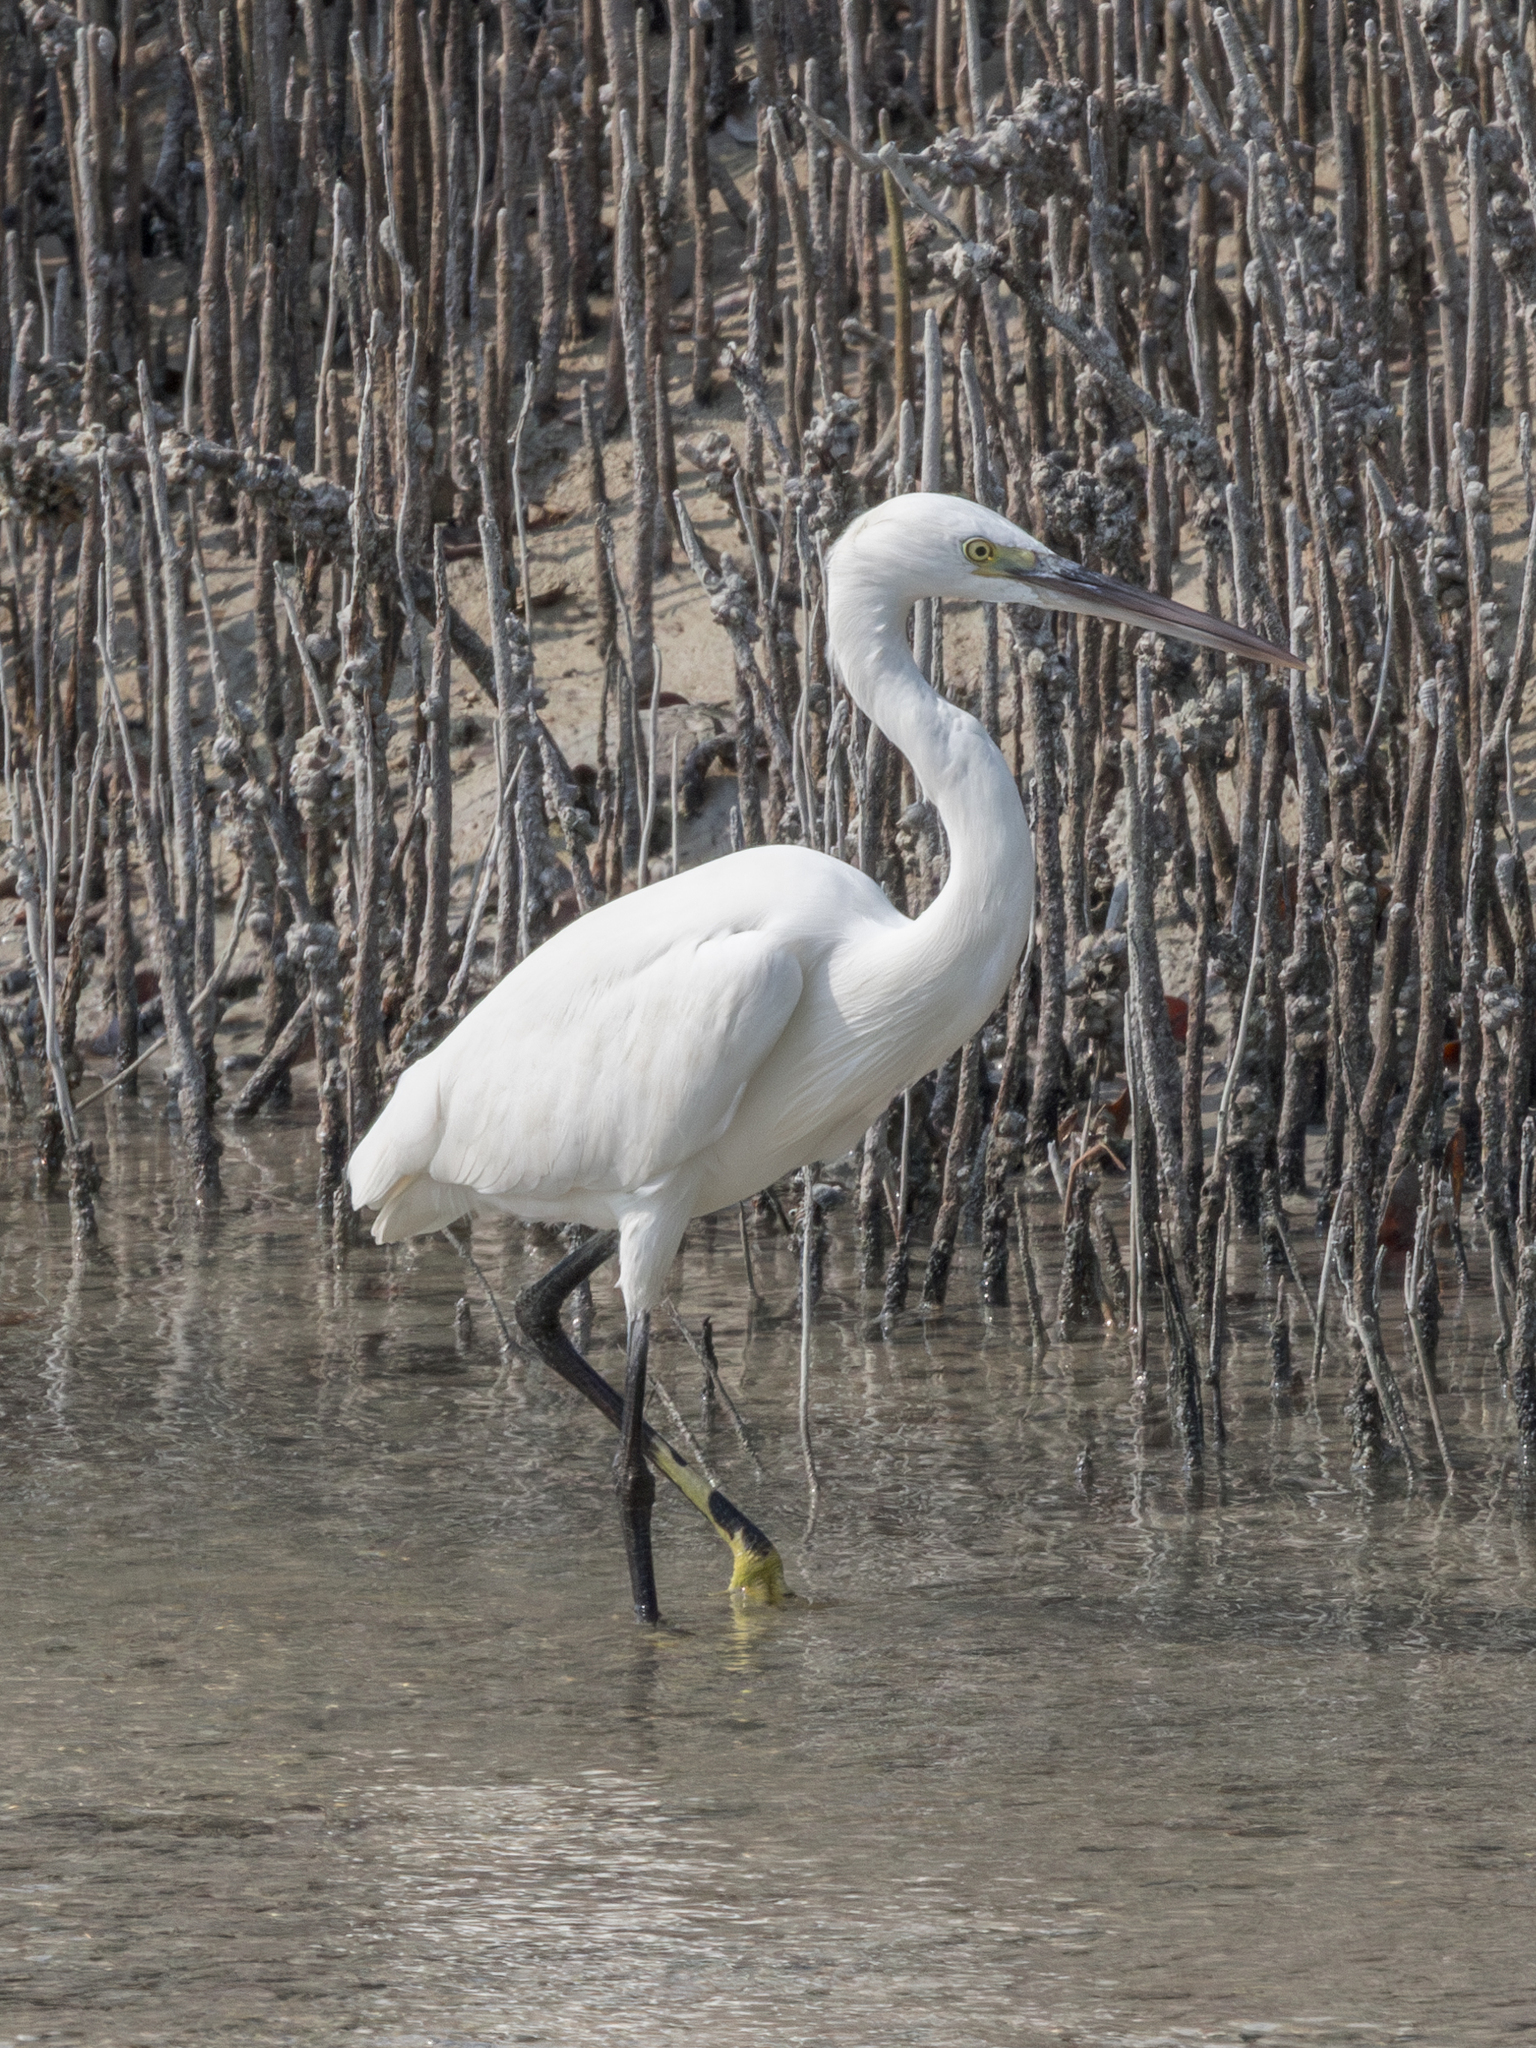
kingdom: Animalia
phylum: Chordata
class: Aves
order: Pelecaniformes
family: Ardeidae
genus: Egretta
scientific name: Egretta gularis
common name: Western reef-heron
